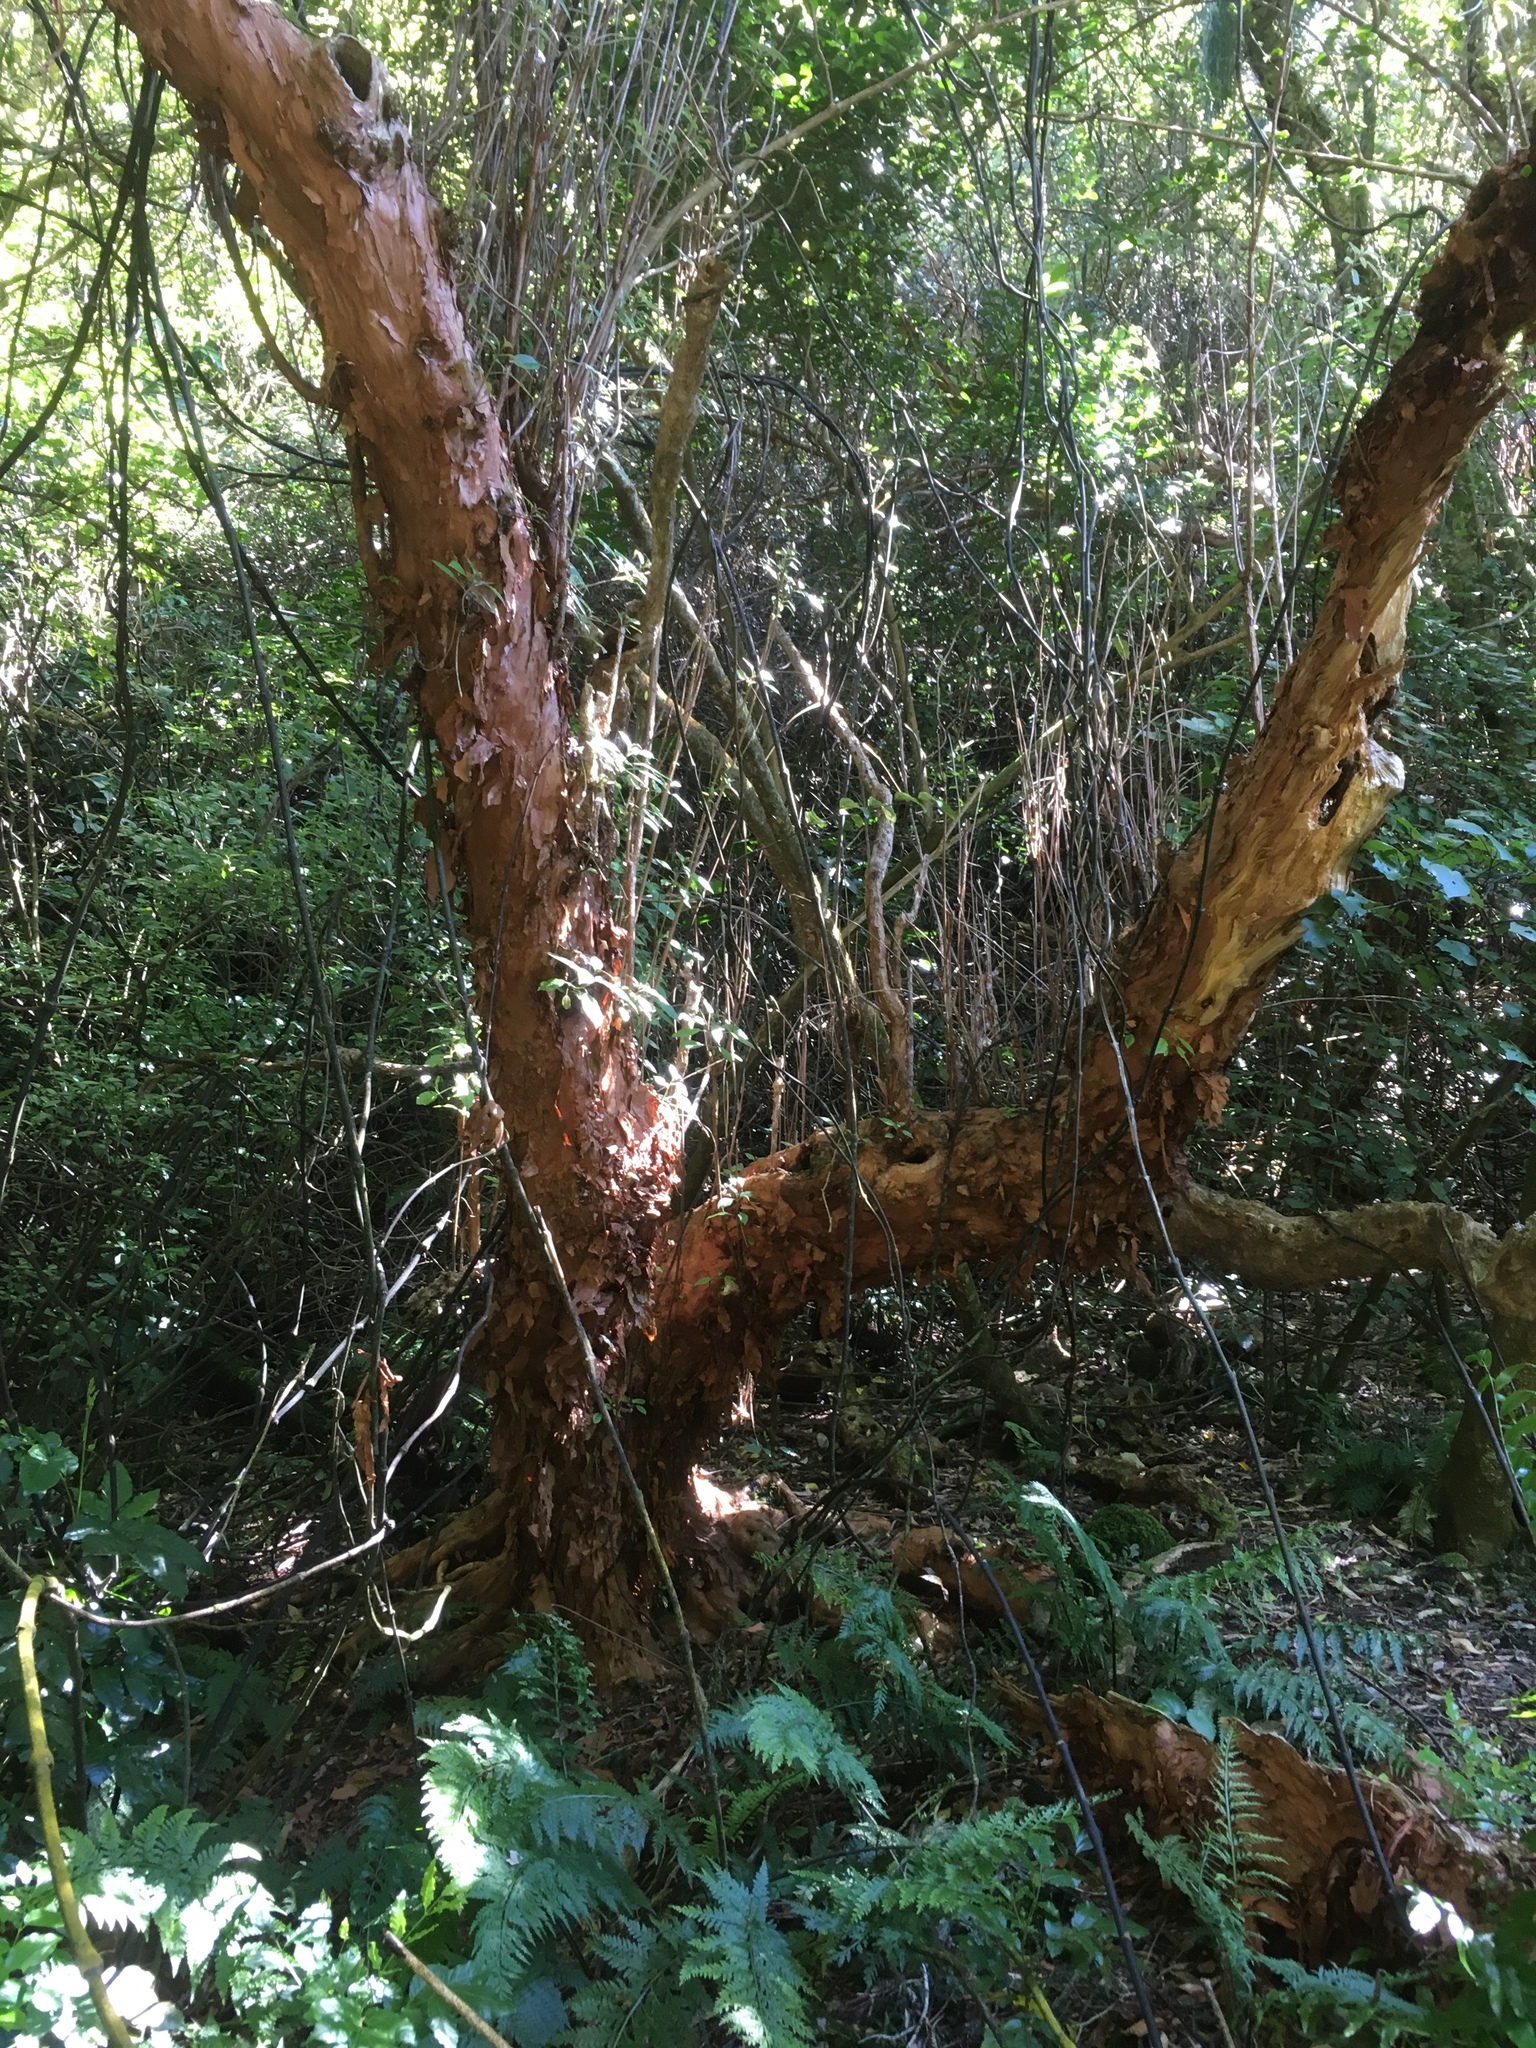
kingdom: Plantae
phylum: Tracheophyta
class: Magnoliopsida
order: Myrtales
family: Onagraceae
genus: Fuchsia
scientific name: Fuchsia excorticata
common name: Tree fuchsia
